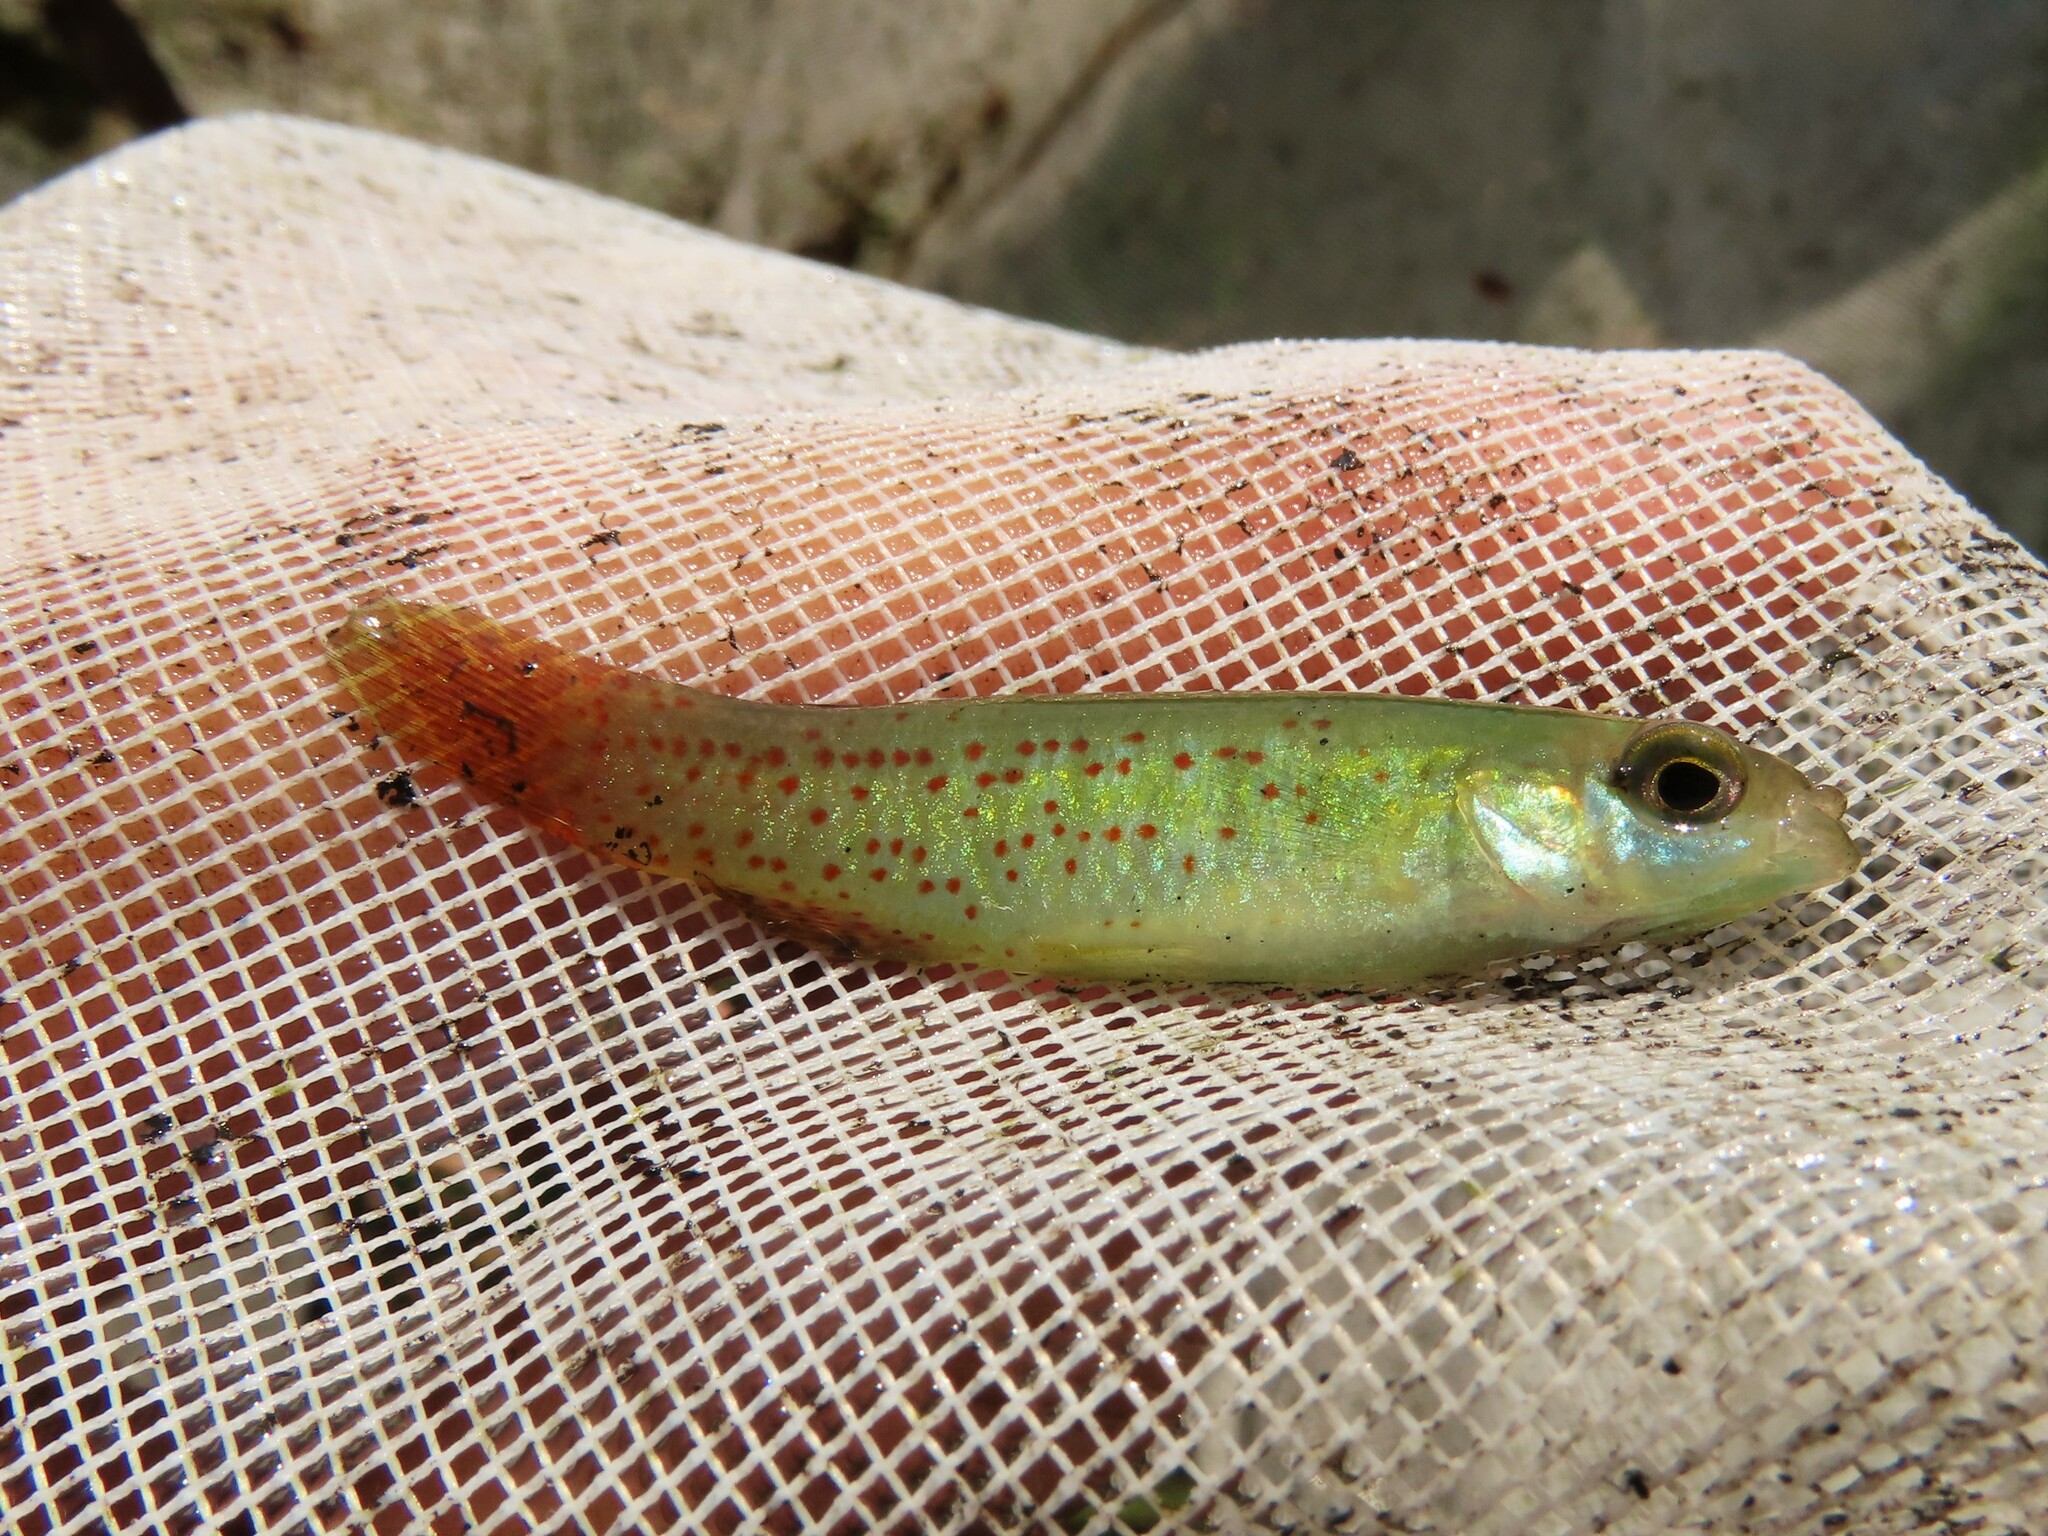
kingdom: Animalia
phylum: Chordata
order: Cyprinodontiformes
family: Fundulidae
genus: Fundulus
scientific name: Fundulus chrysotus
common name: Golden topminnow
